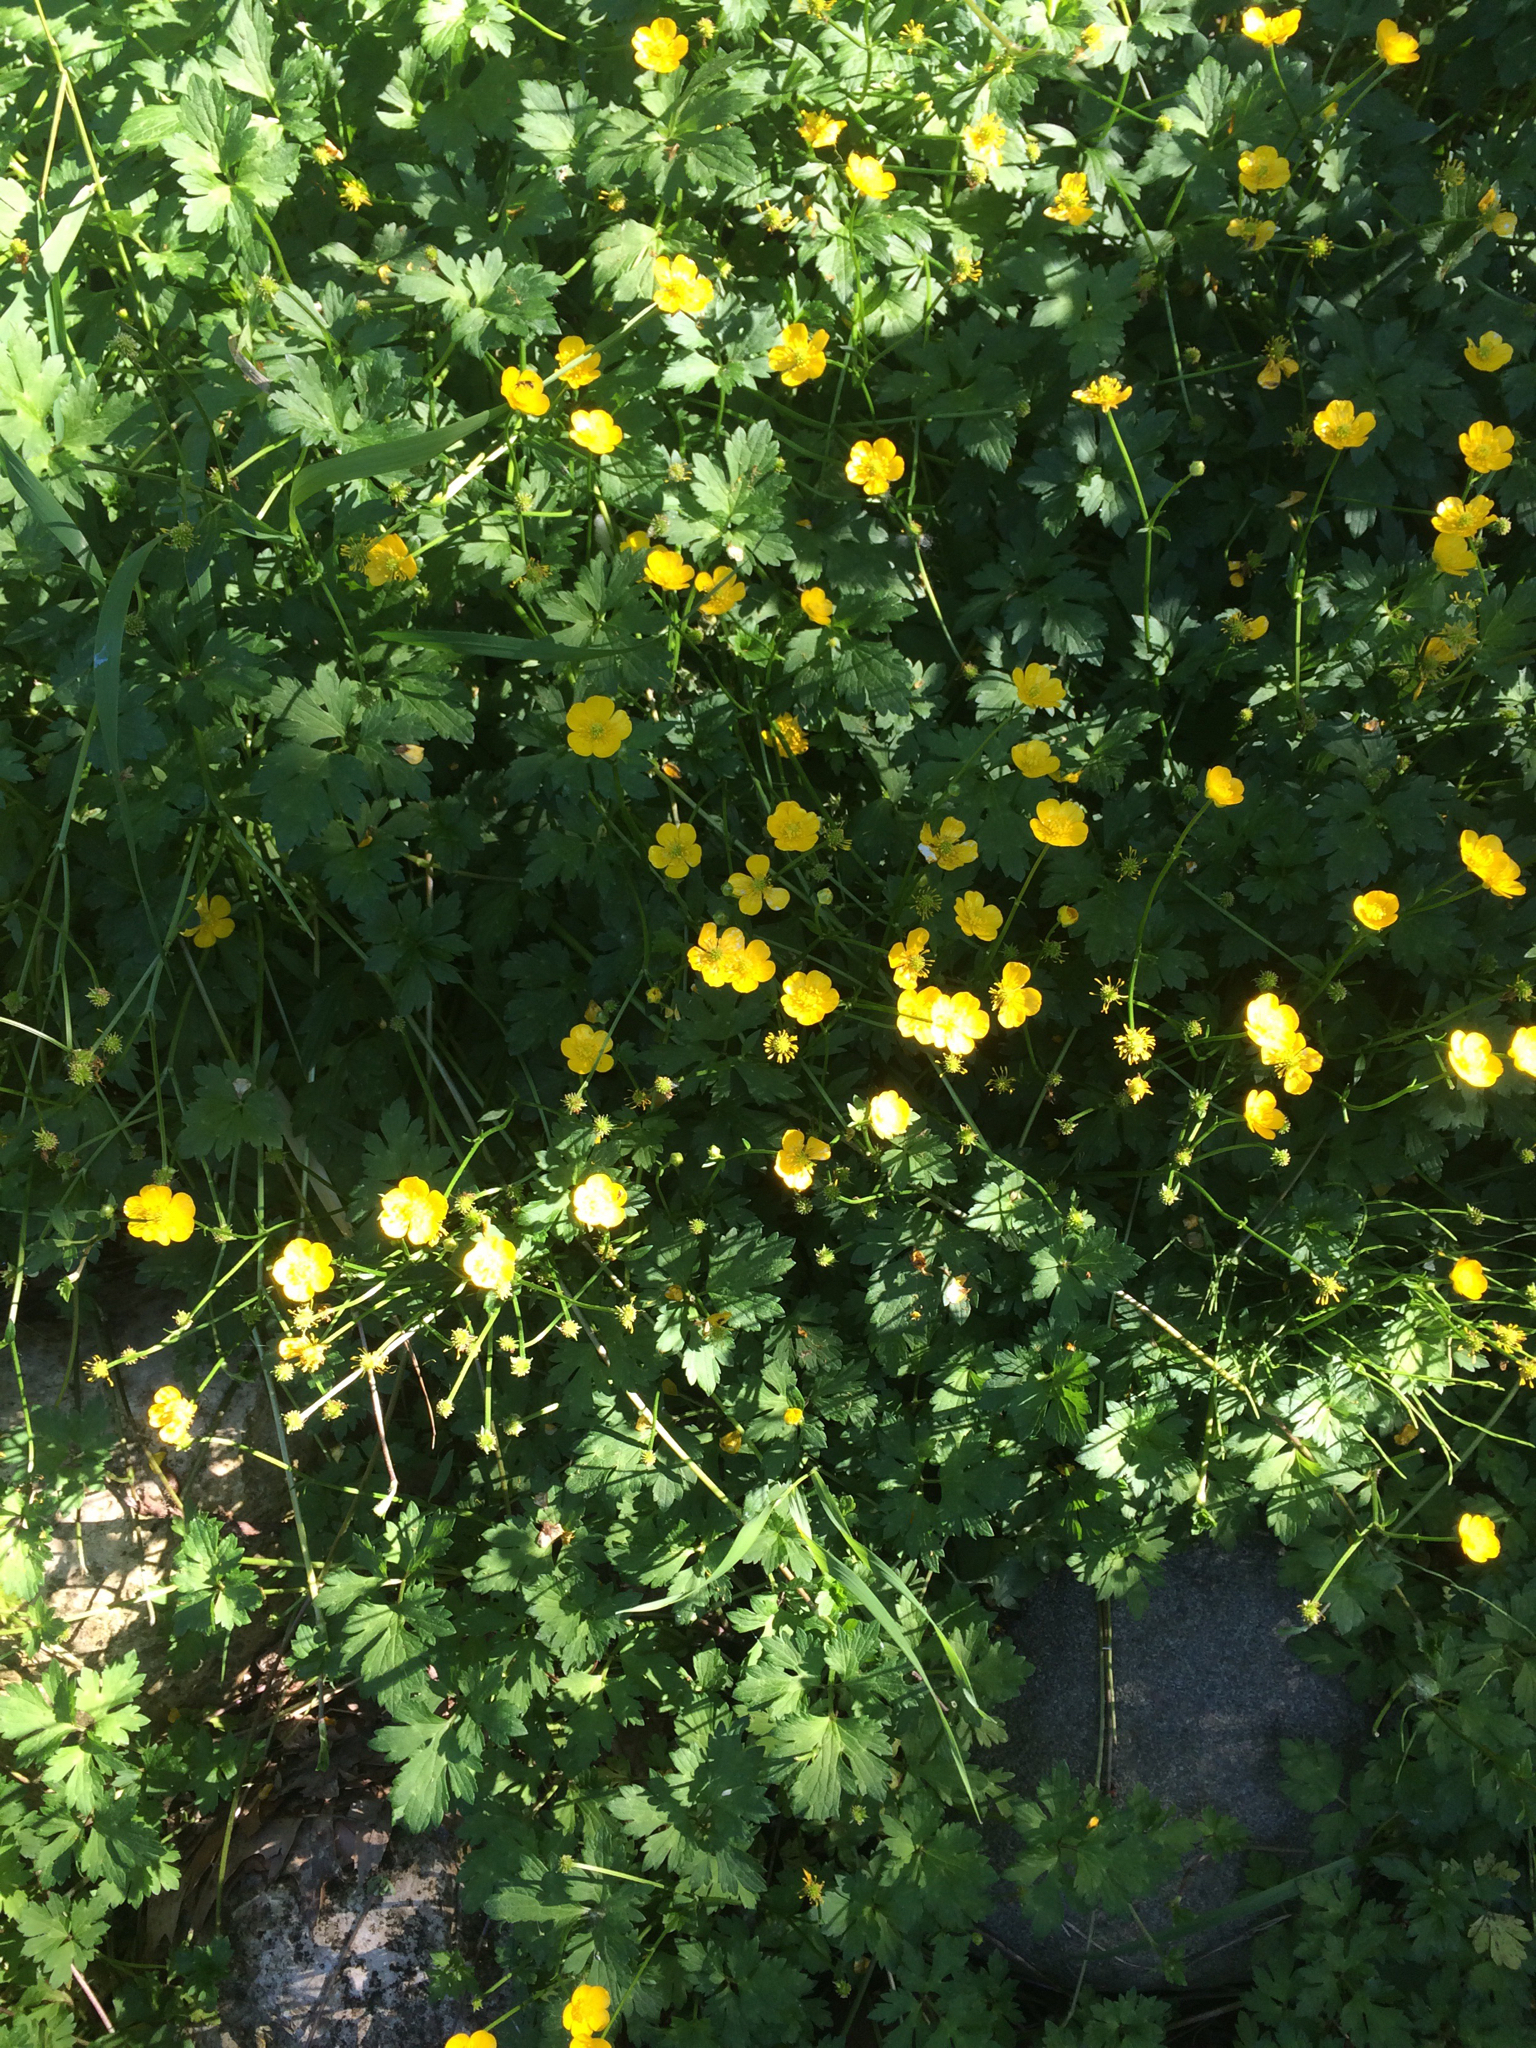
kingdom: Plantae
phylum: Tracheophyta
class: Magnoliopsida
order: Ranunculales
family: Ranunculaceae
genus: Ranunculus
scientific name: Ranunculus repens
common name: Creeping buttercup
